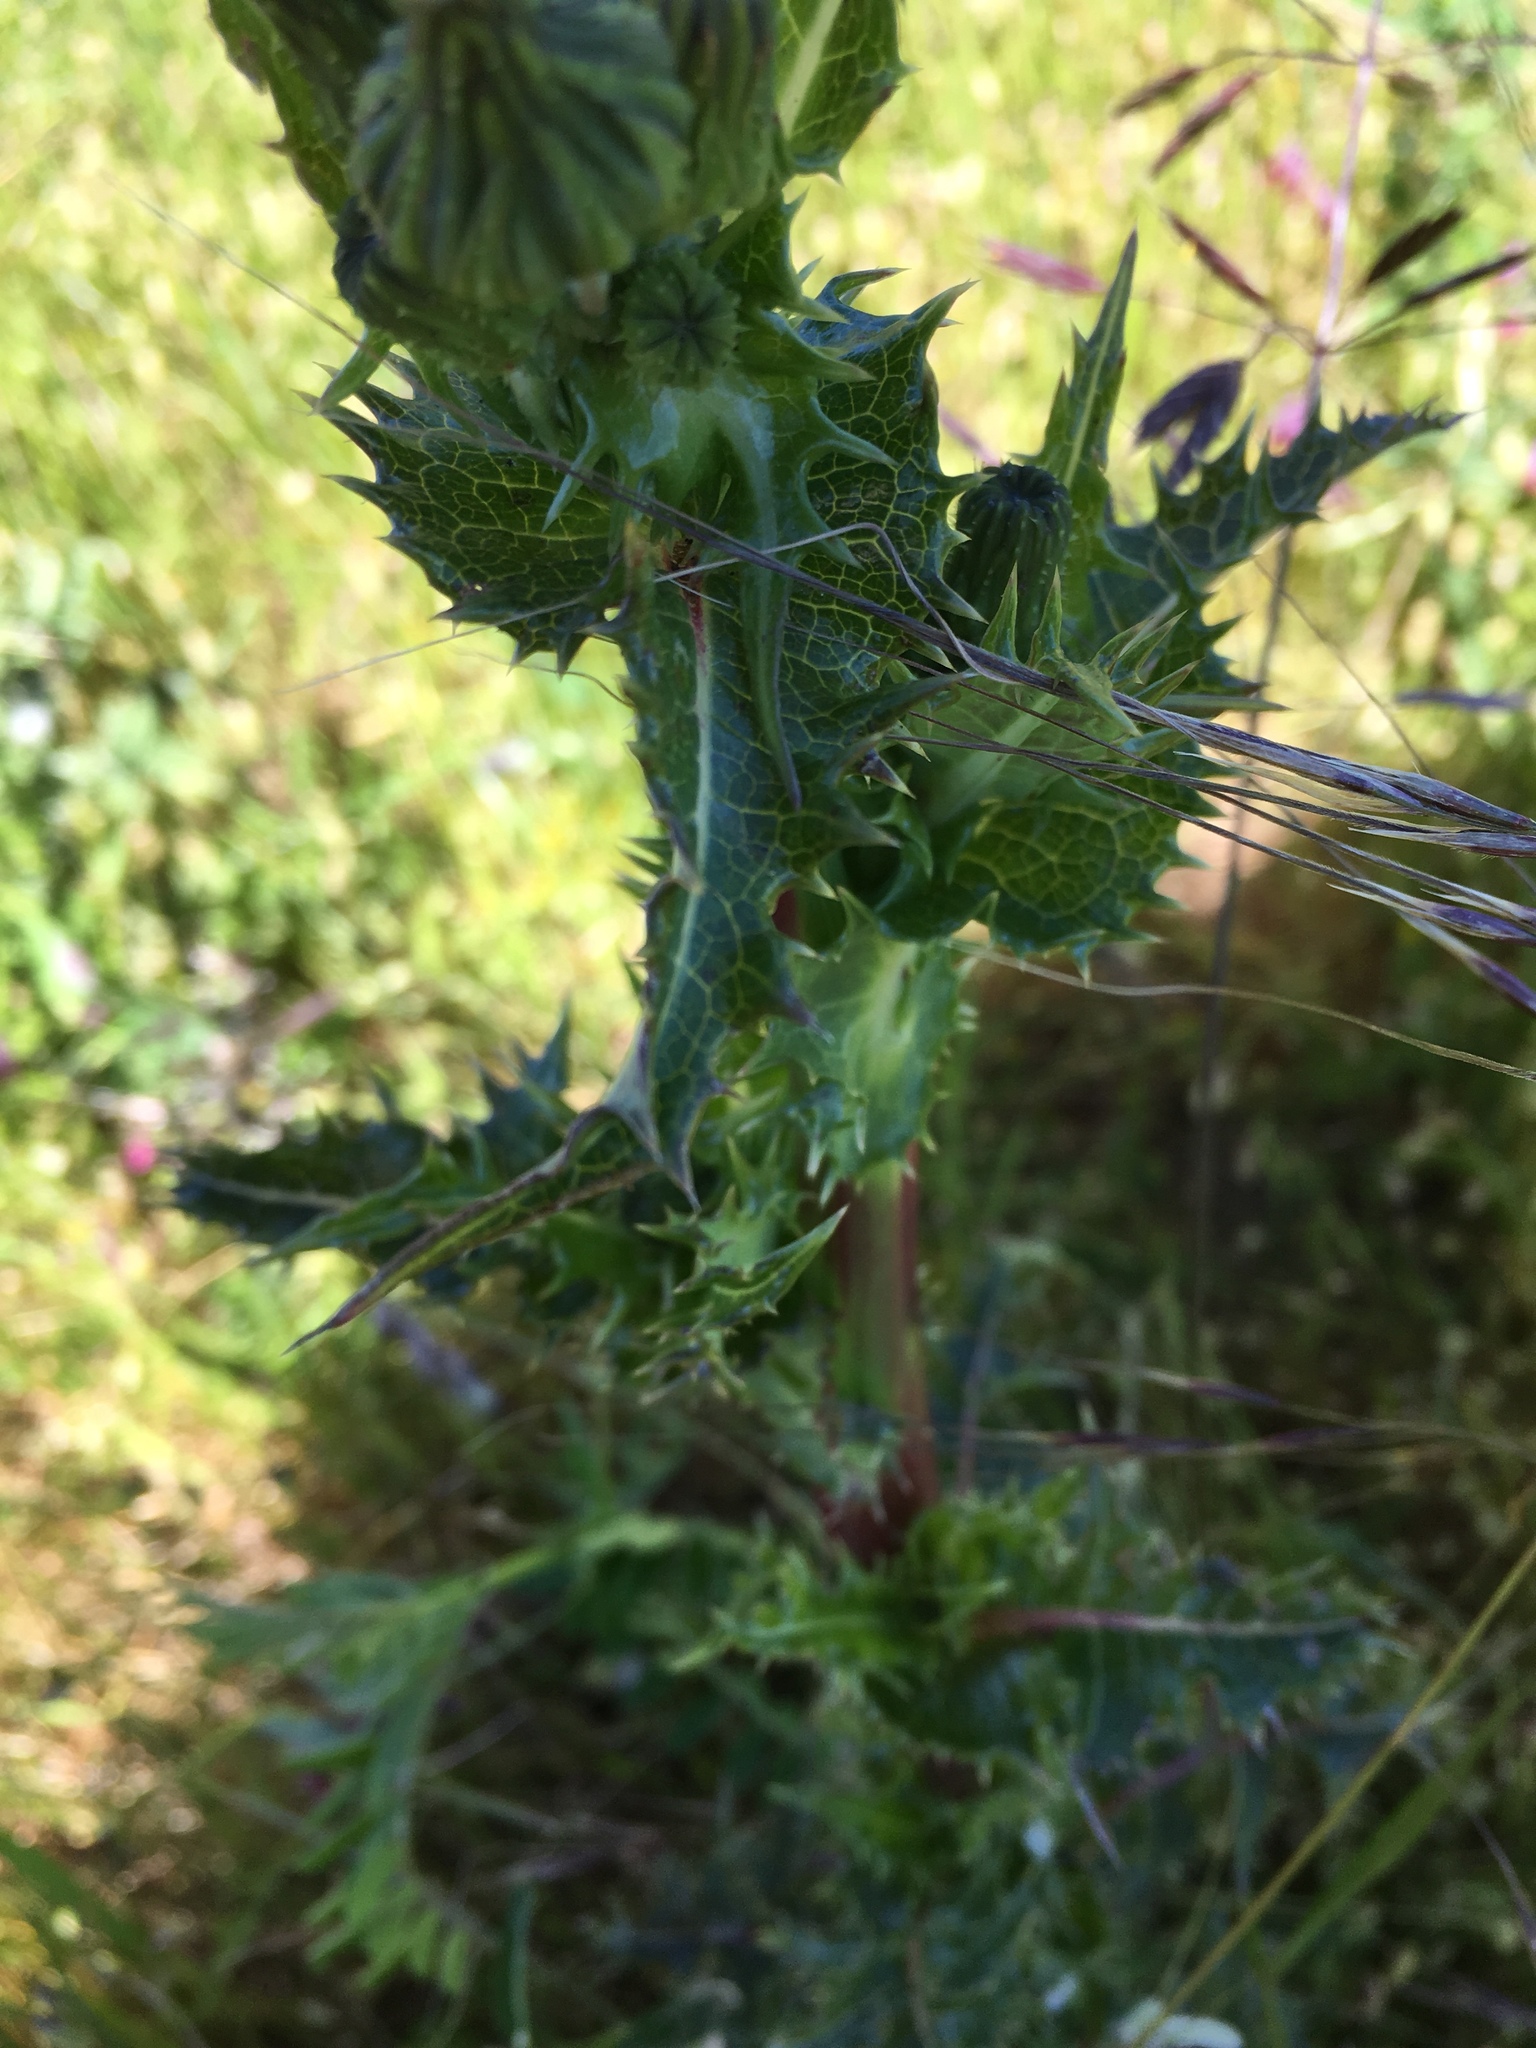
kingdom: Plantae
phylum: Tracheophyta
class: Magnoliopsida
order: Asterales
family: Asteraceae
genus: Sonchus
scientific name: Sonchus asper
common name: Prickly sow-thistle
